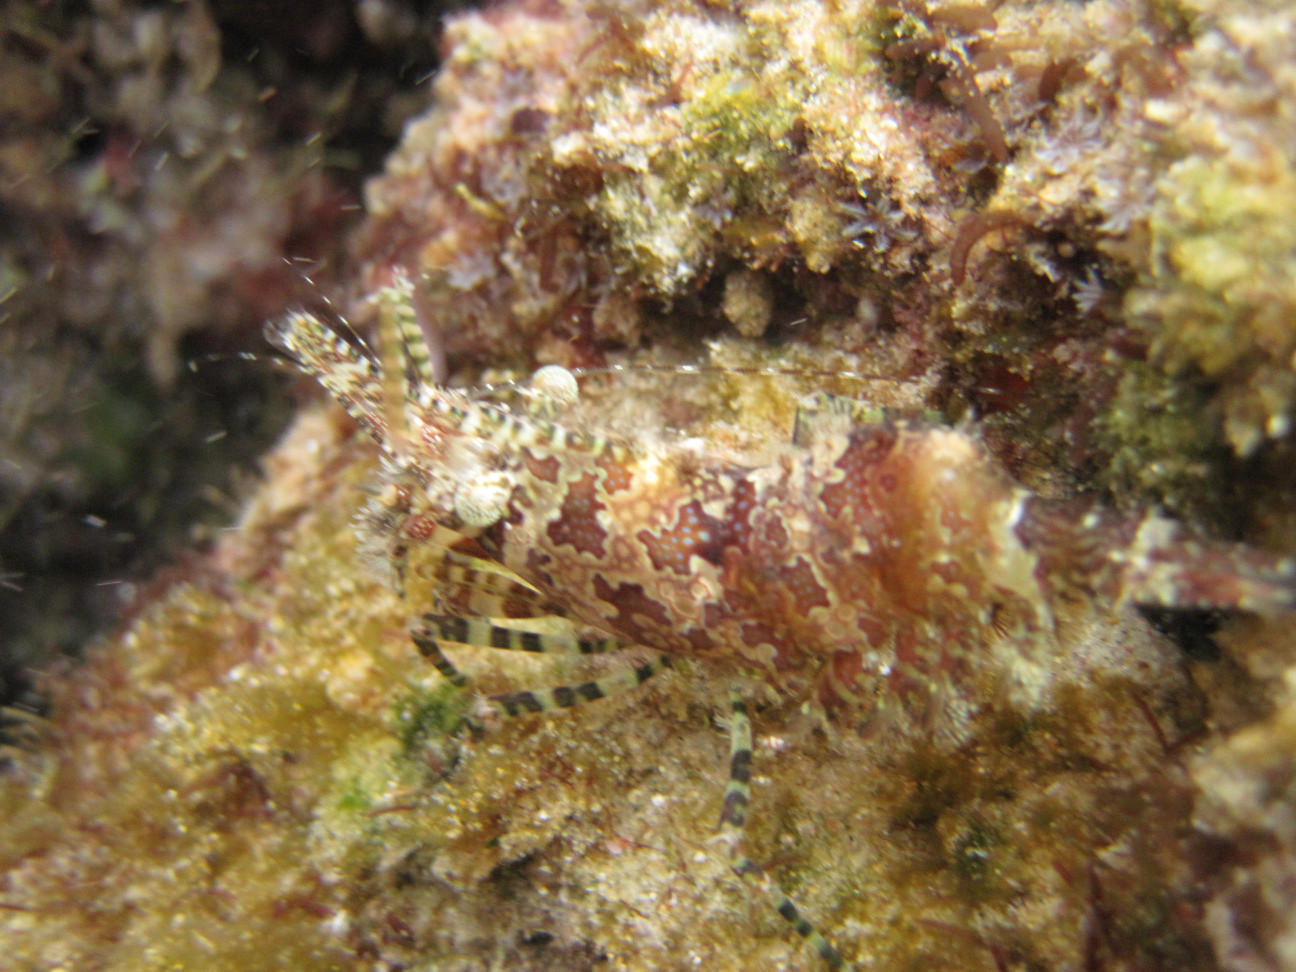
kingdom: Animalia
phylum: Arthropoda
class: Malacostraca
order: Decapoda
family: Hippolytidae
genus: Saron
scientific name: Saron marmoratus
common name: Common marble shrimp
